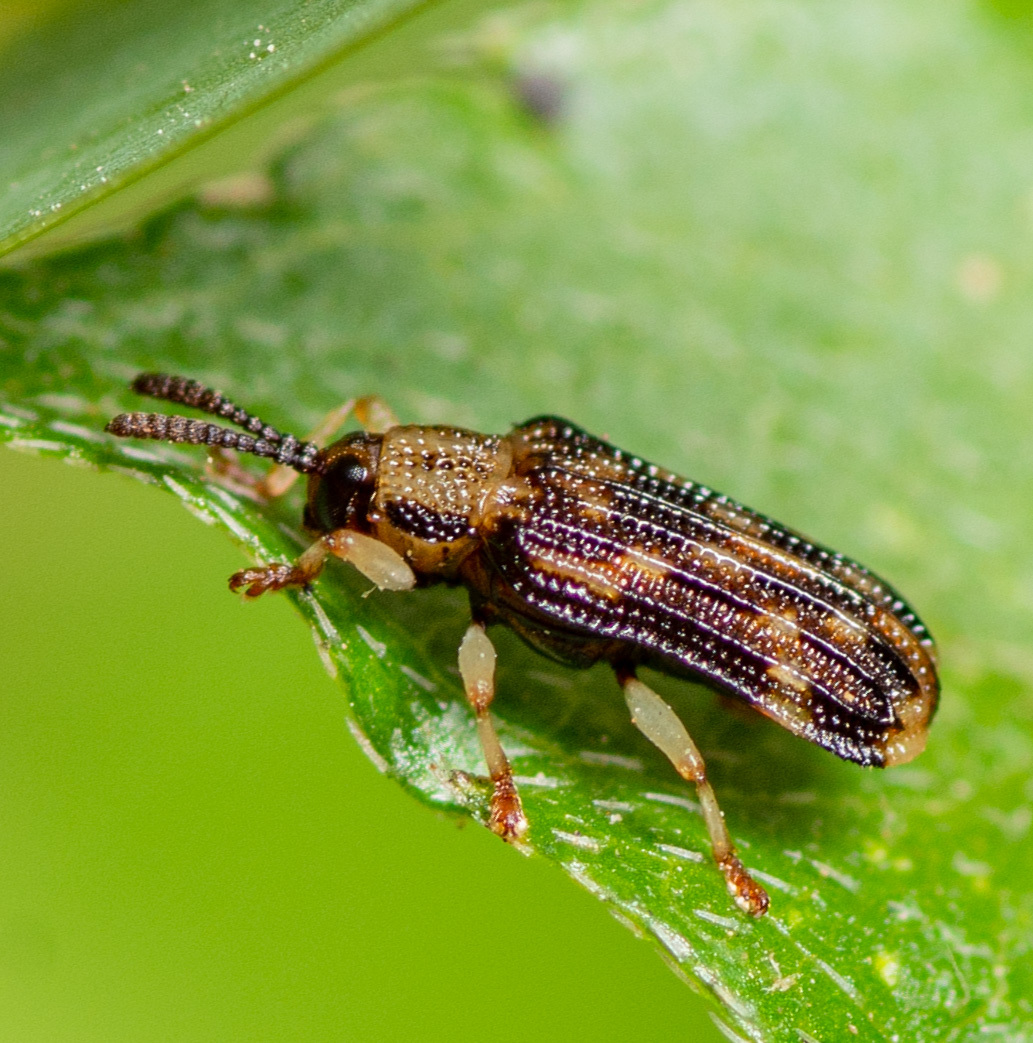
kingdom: Animalia
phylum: Arthropoda
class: Insecta
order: Coleoptera
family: Chrysomelidae
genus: Sumitrosis
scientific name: Sumitrosis inaequalis
